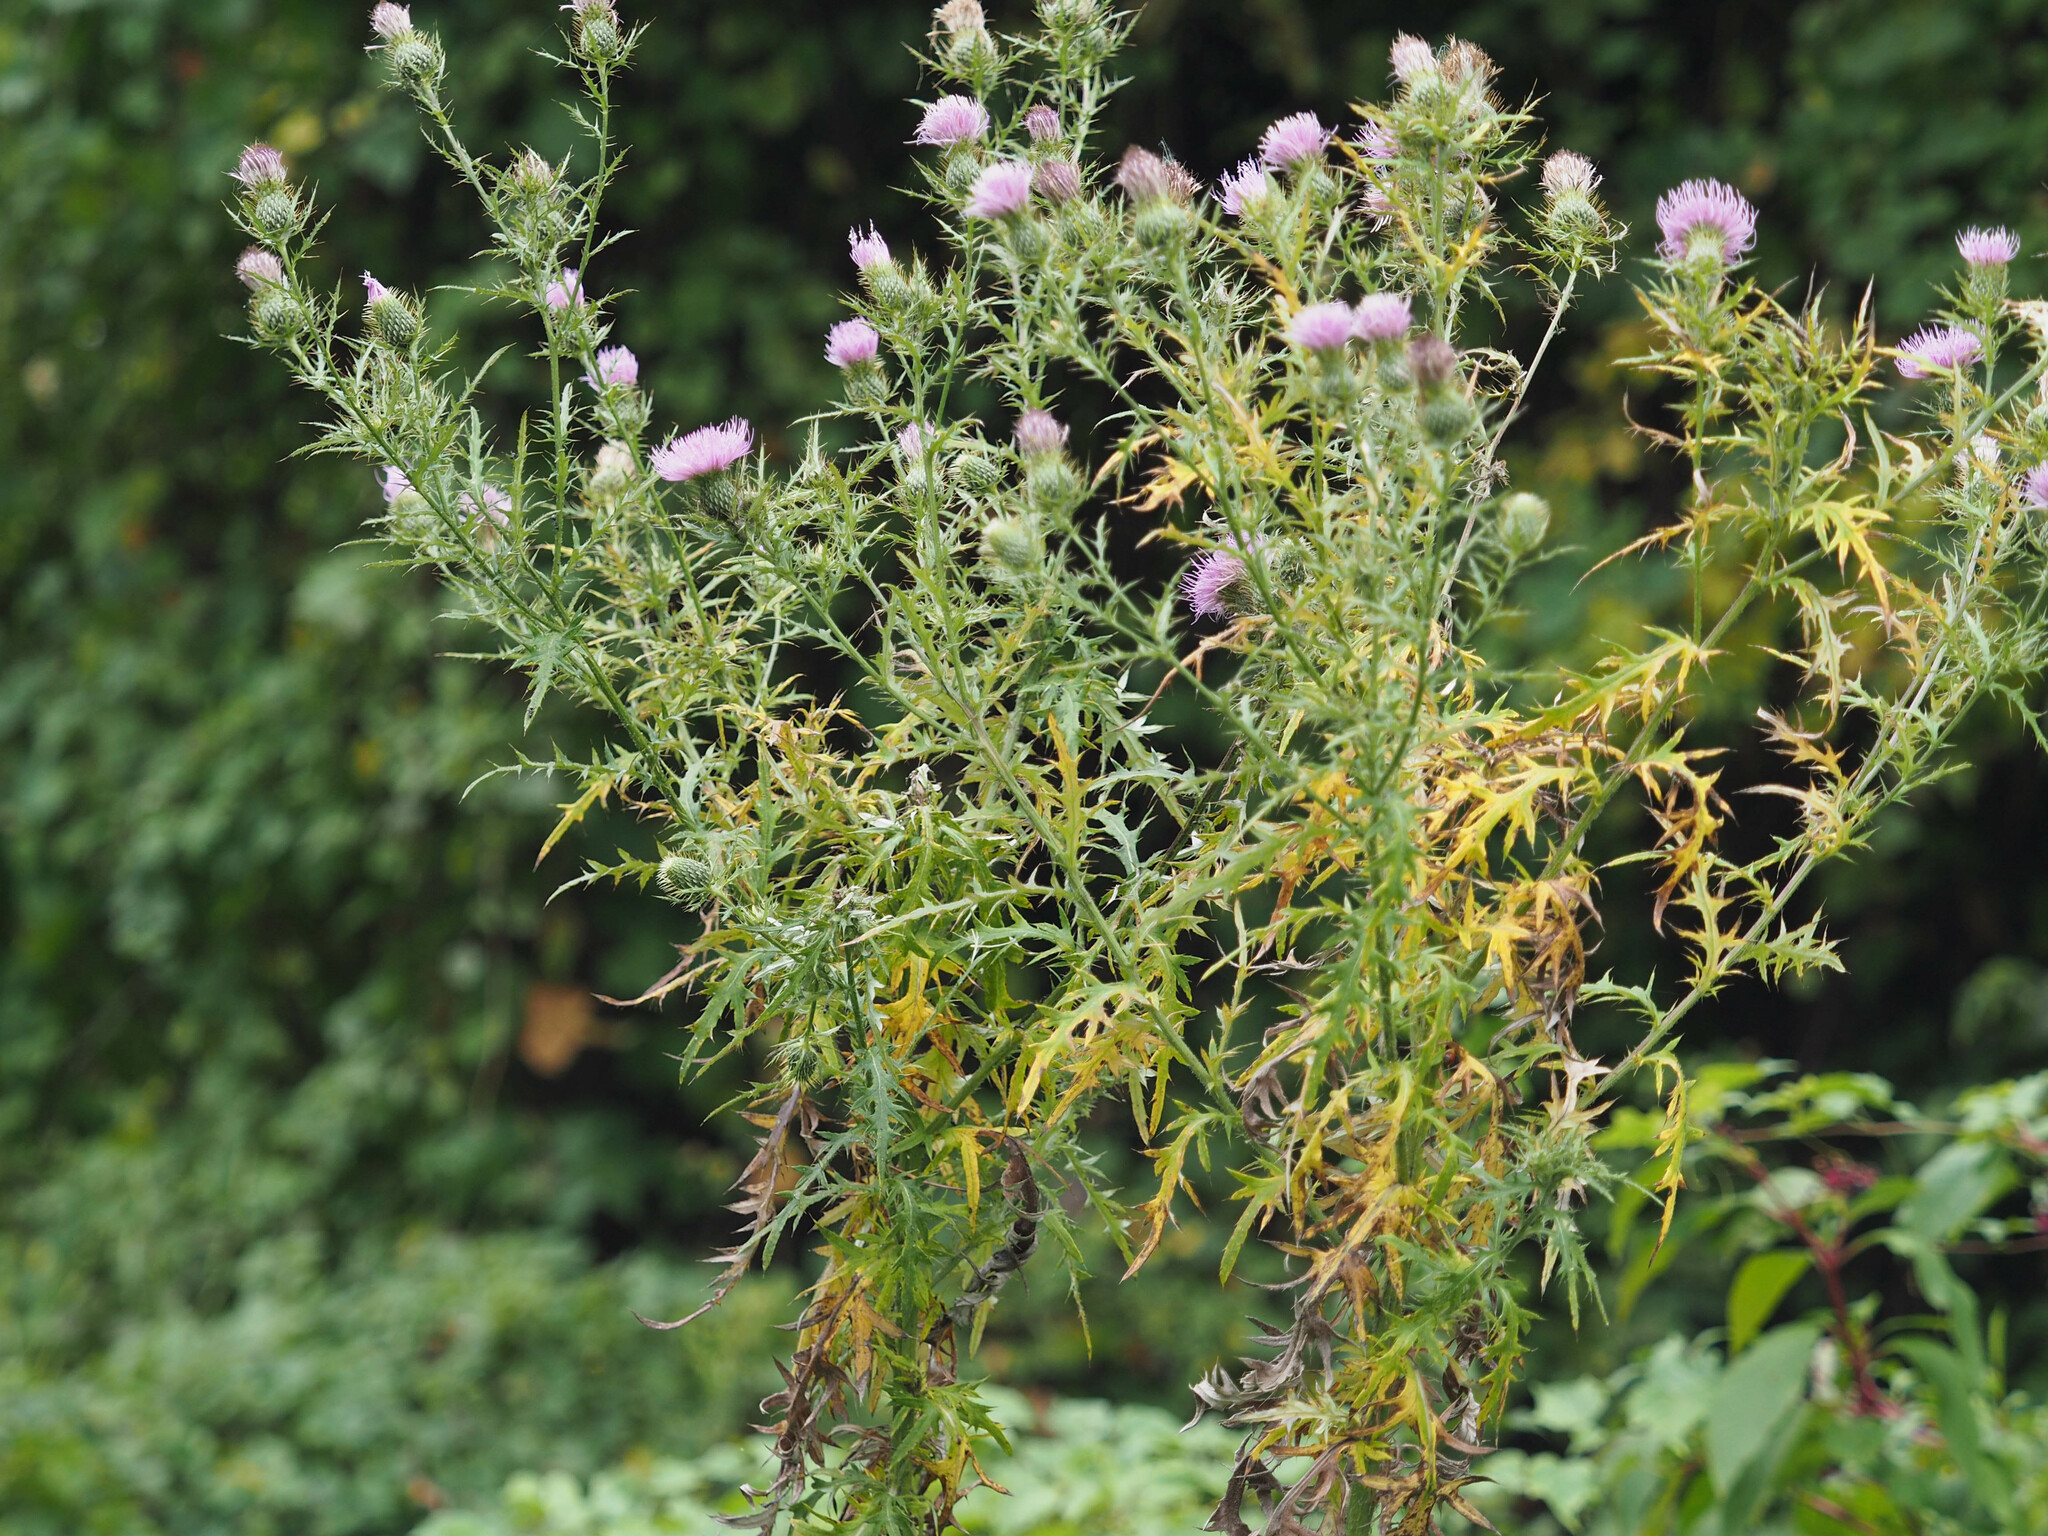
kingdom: Plantae
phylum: Tracheophyta
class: Magnoliopsida
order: Asterales
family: Asteraceae
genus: Cirsium
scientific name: Cirsium discolor
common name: Field thistle
